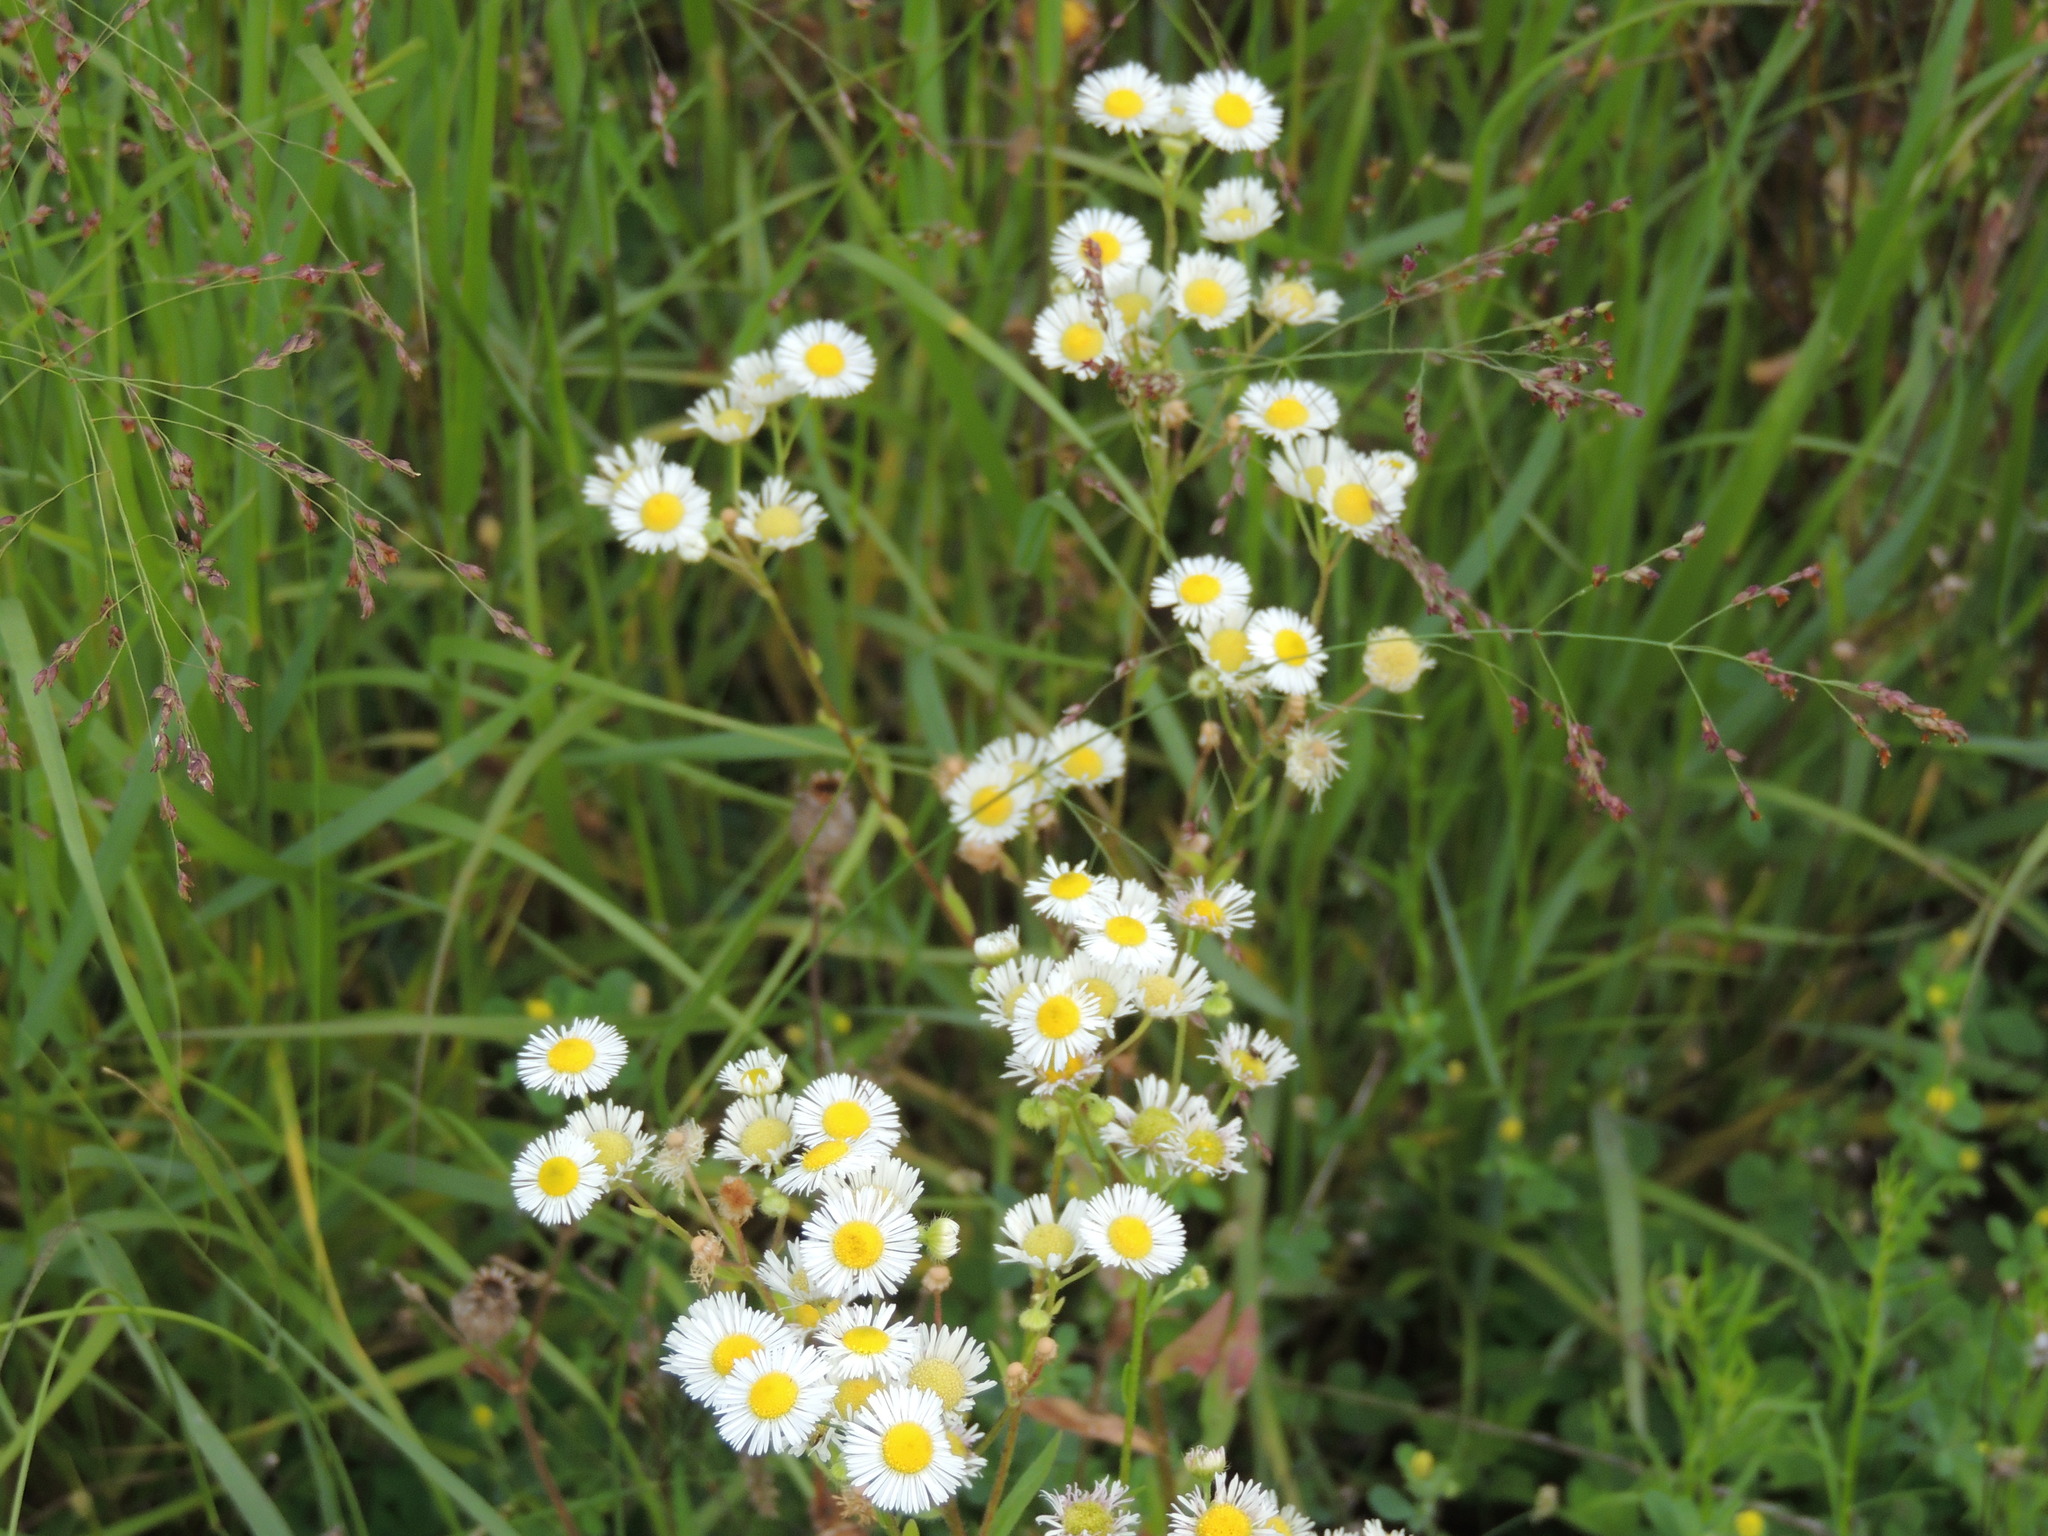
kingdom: Plantae
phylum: Tracheophyta
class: Magnoliopsida
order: Asterales
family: Asteraceae
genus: Erigeron
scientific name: Erigeron strigosus
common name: Common eastern fleabane
